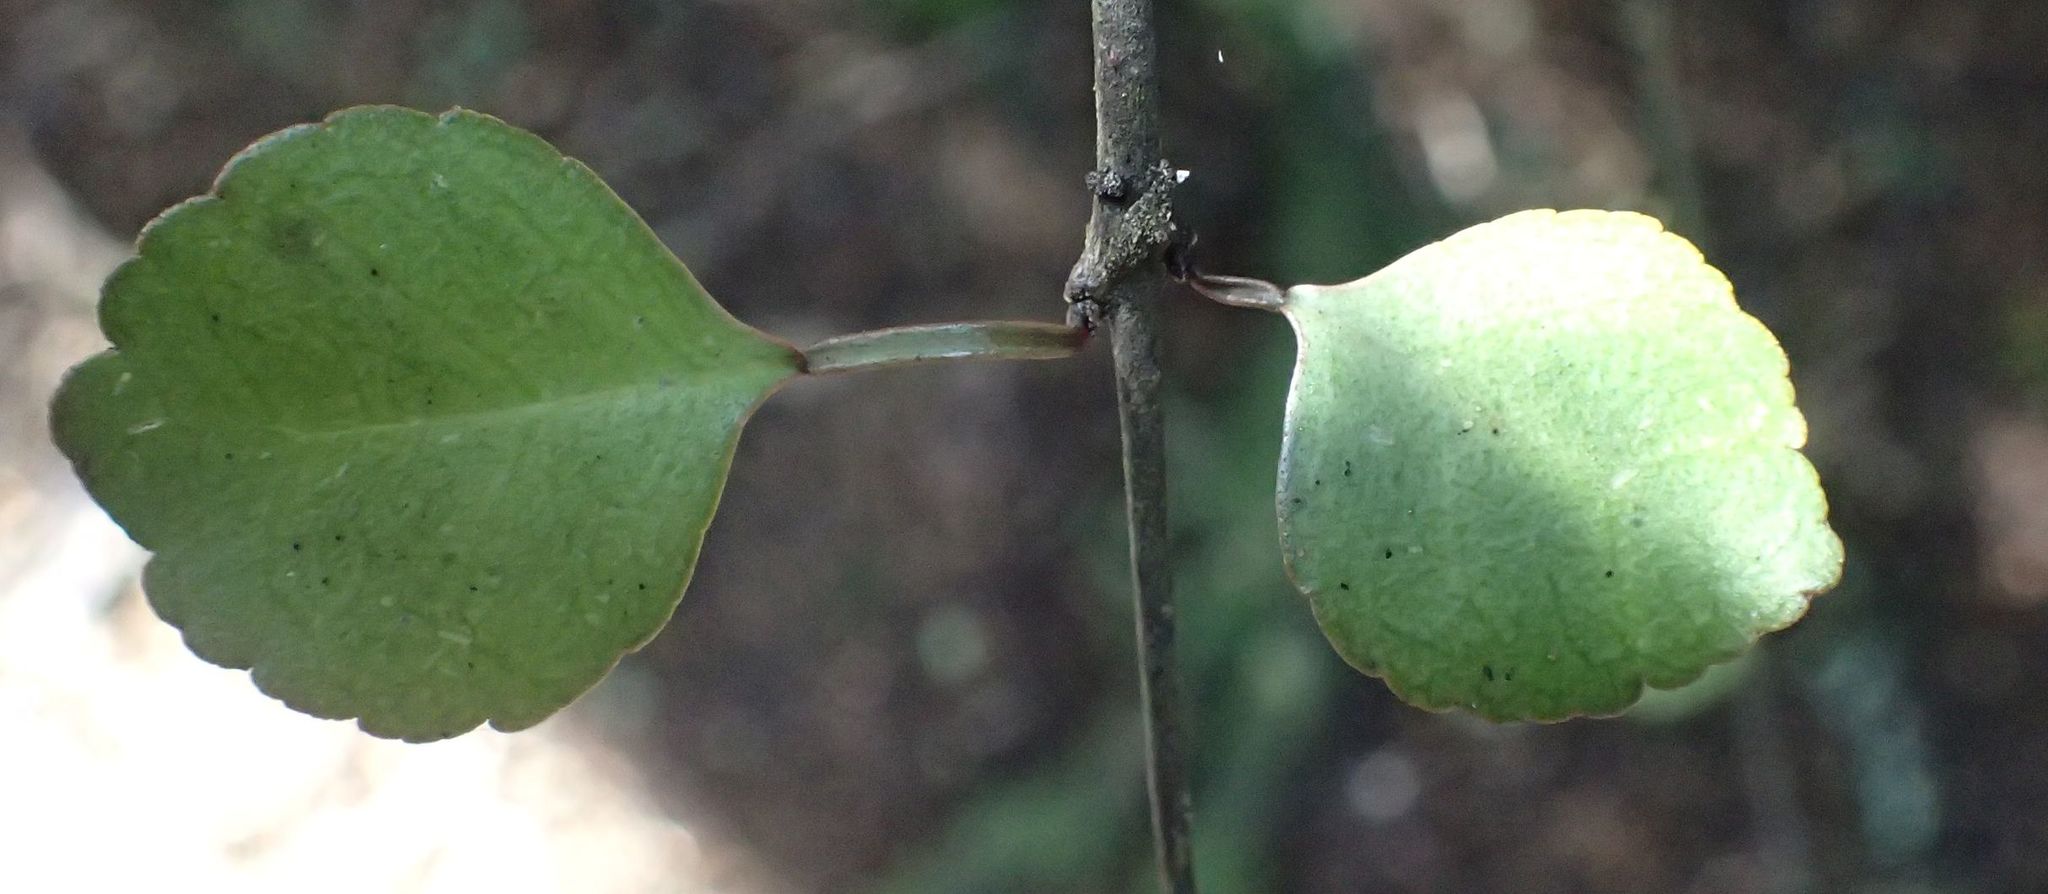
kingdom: Plantae
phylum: Tracheophyta
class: Magnoliopsida
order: Sapindales
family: Rutaceae
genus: Melicope
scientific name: Melicope simplex
